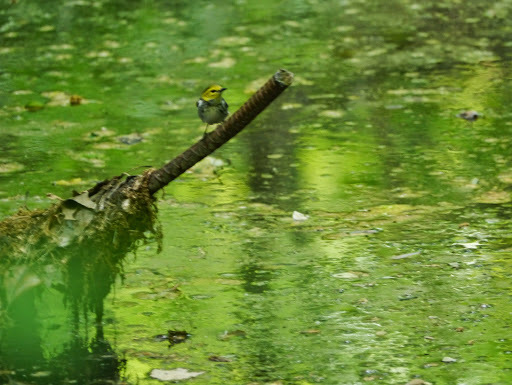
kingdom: Animalia
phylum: Chordata
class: Aves
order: Passeriformes
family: Parulidae
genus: Setophaga
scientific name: Setophaga virens
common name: Black-throated green warbler
